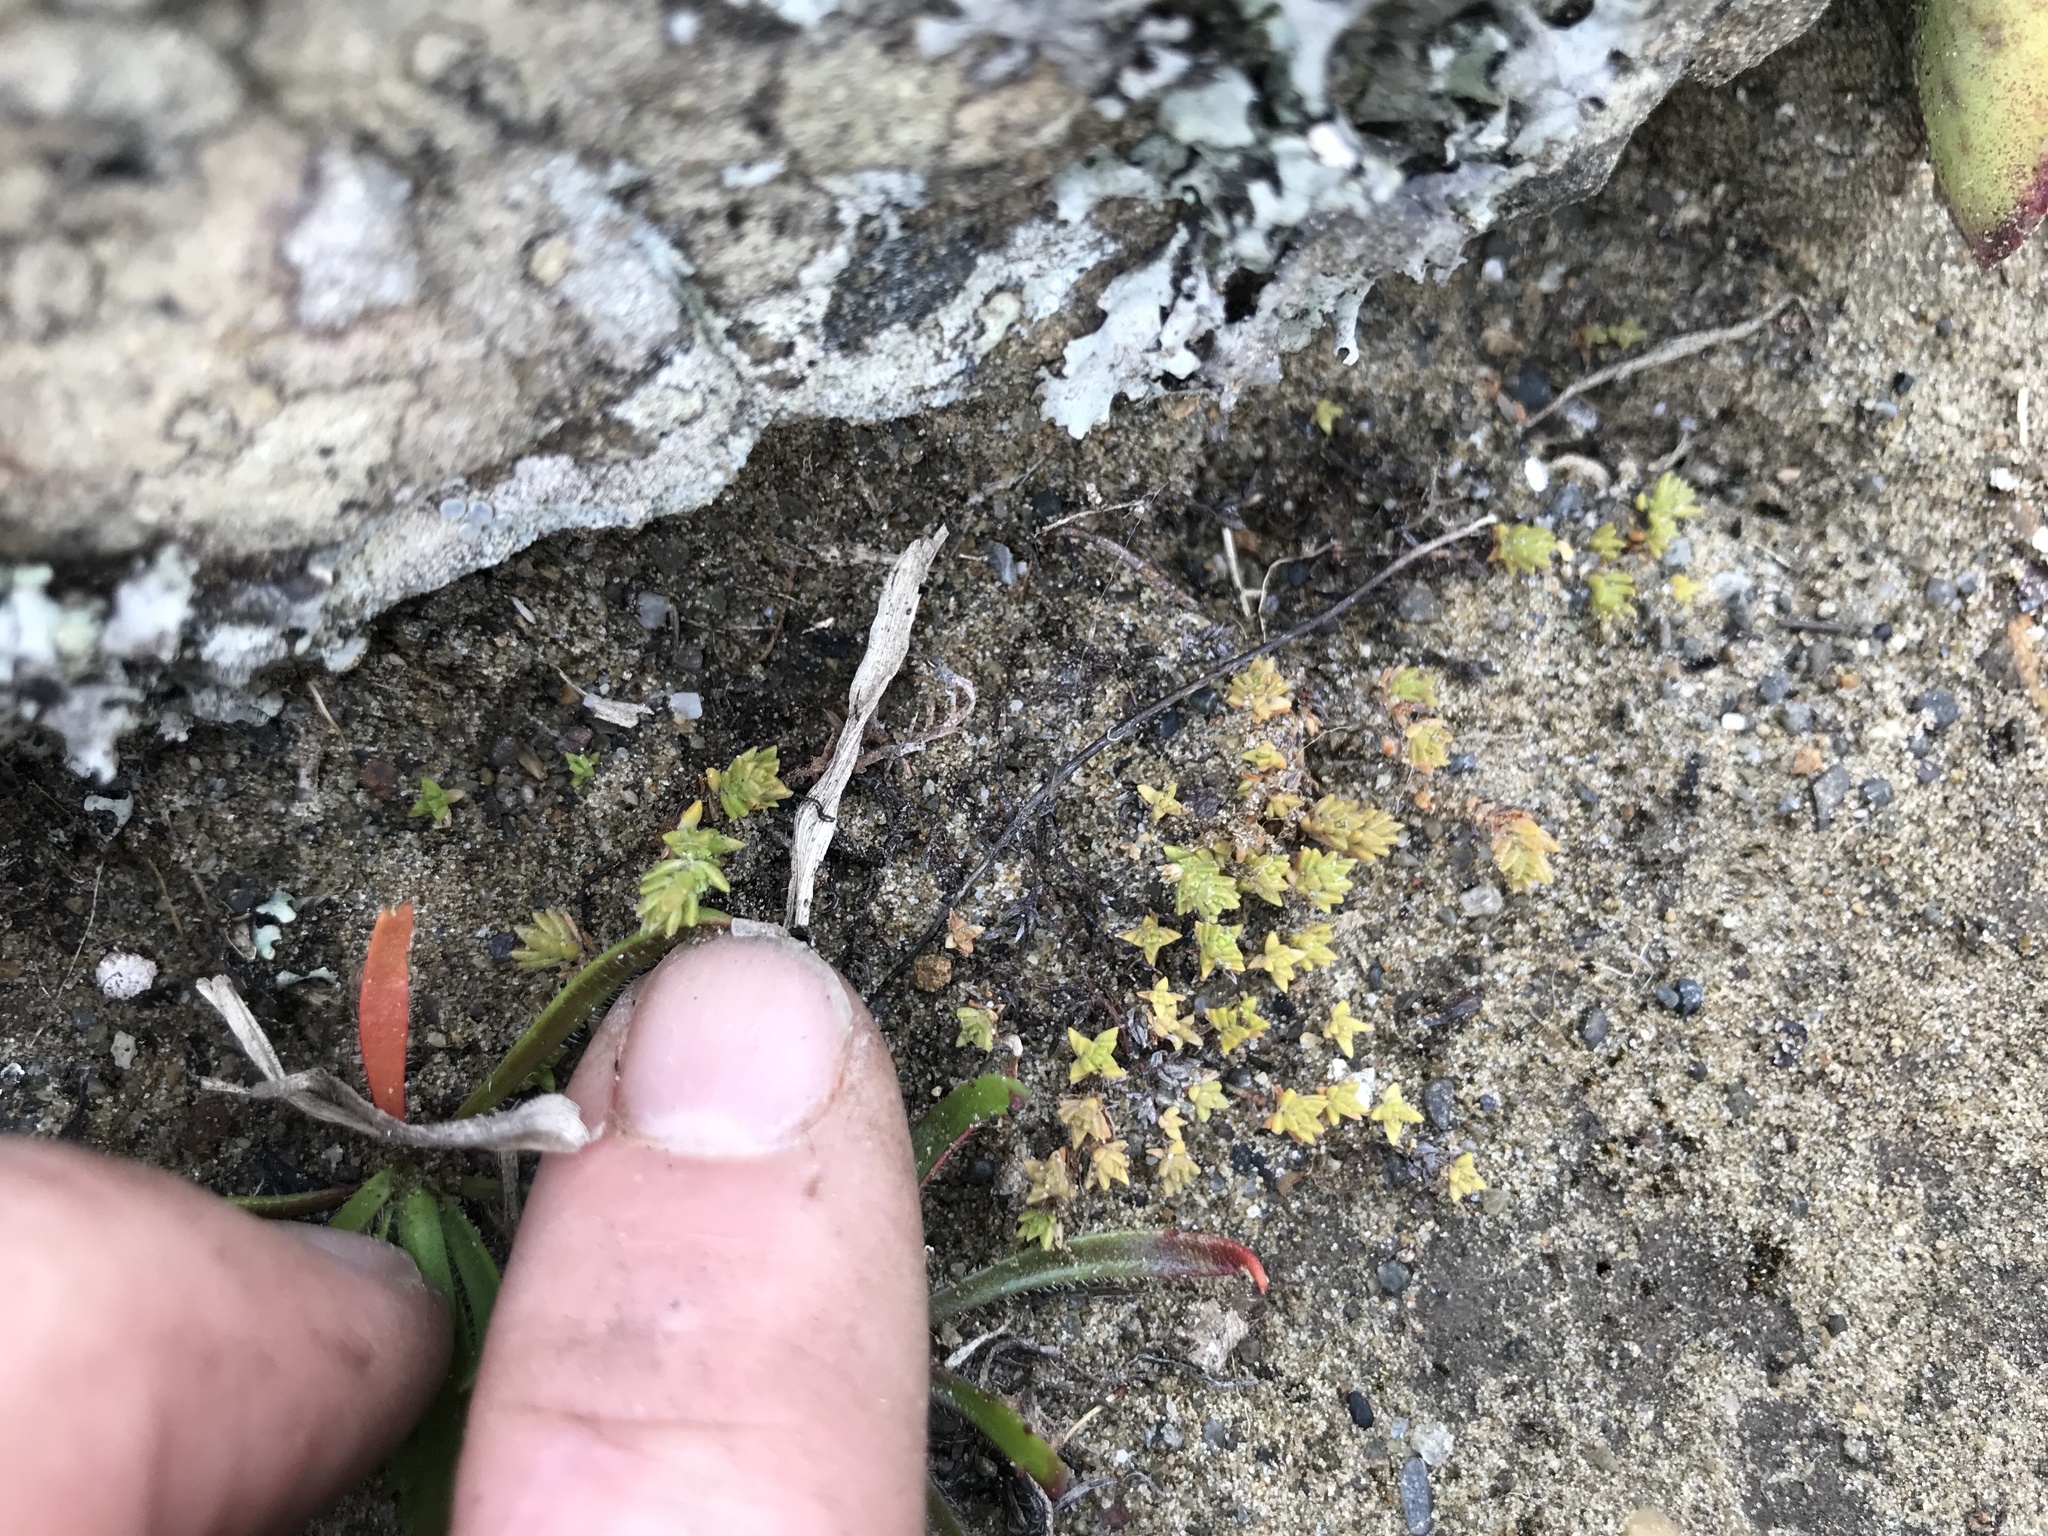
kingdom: Plantae
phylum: Tracheophyta
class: Magnoliopsida
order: Saxifragales
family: Crassulaceae
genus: Crassula
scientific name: Crassula moschata
